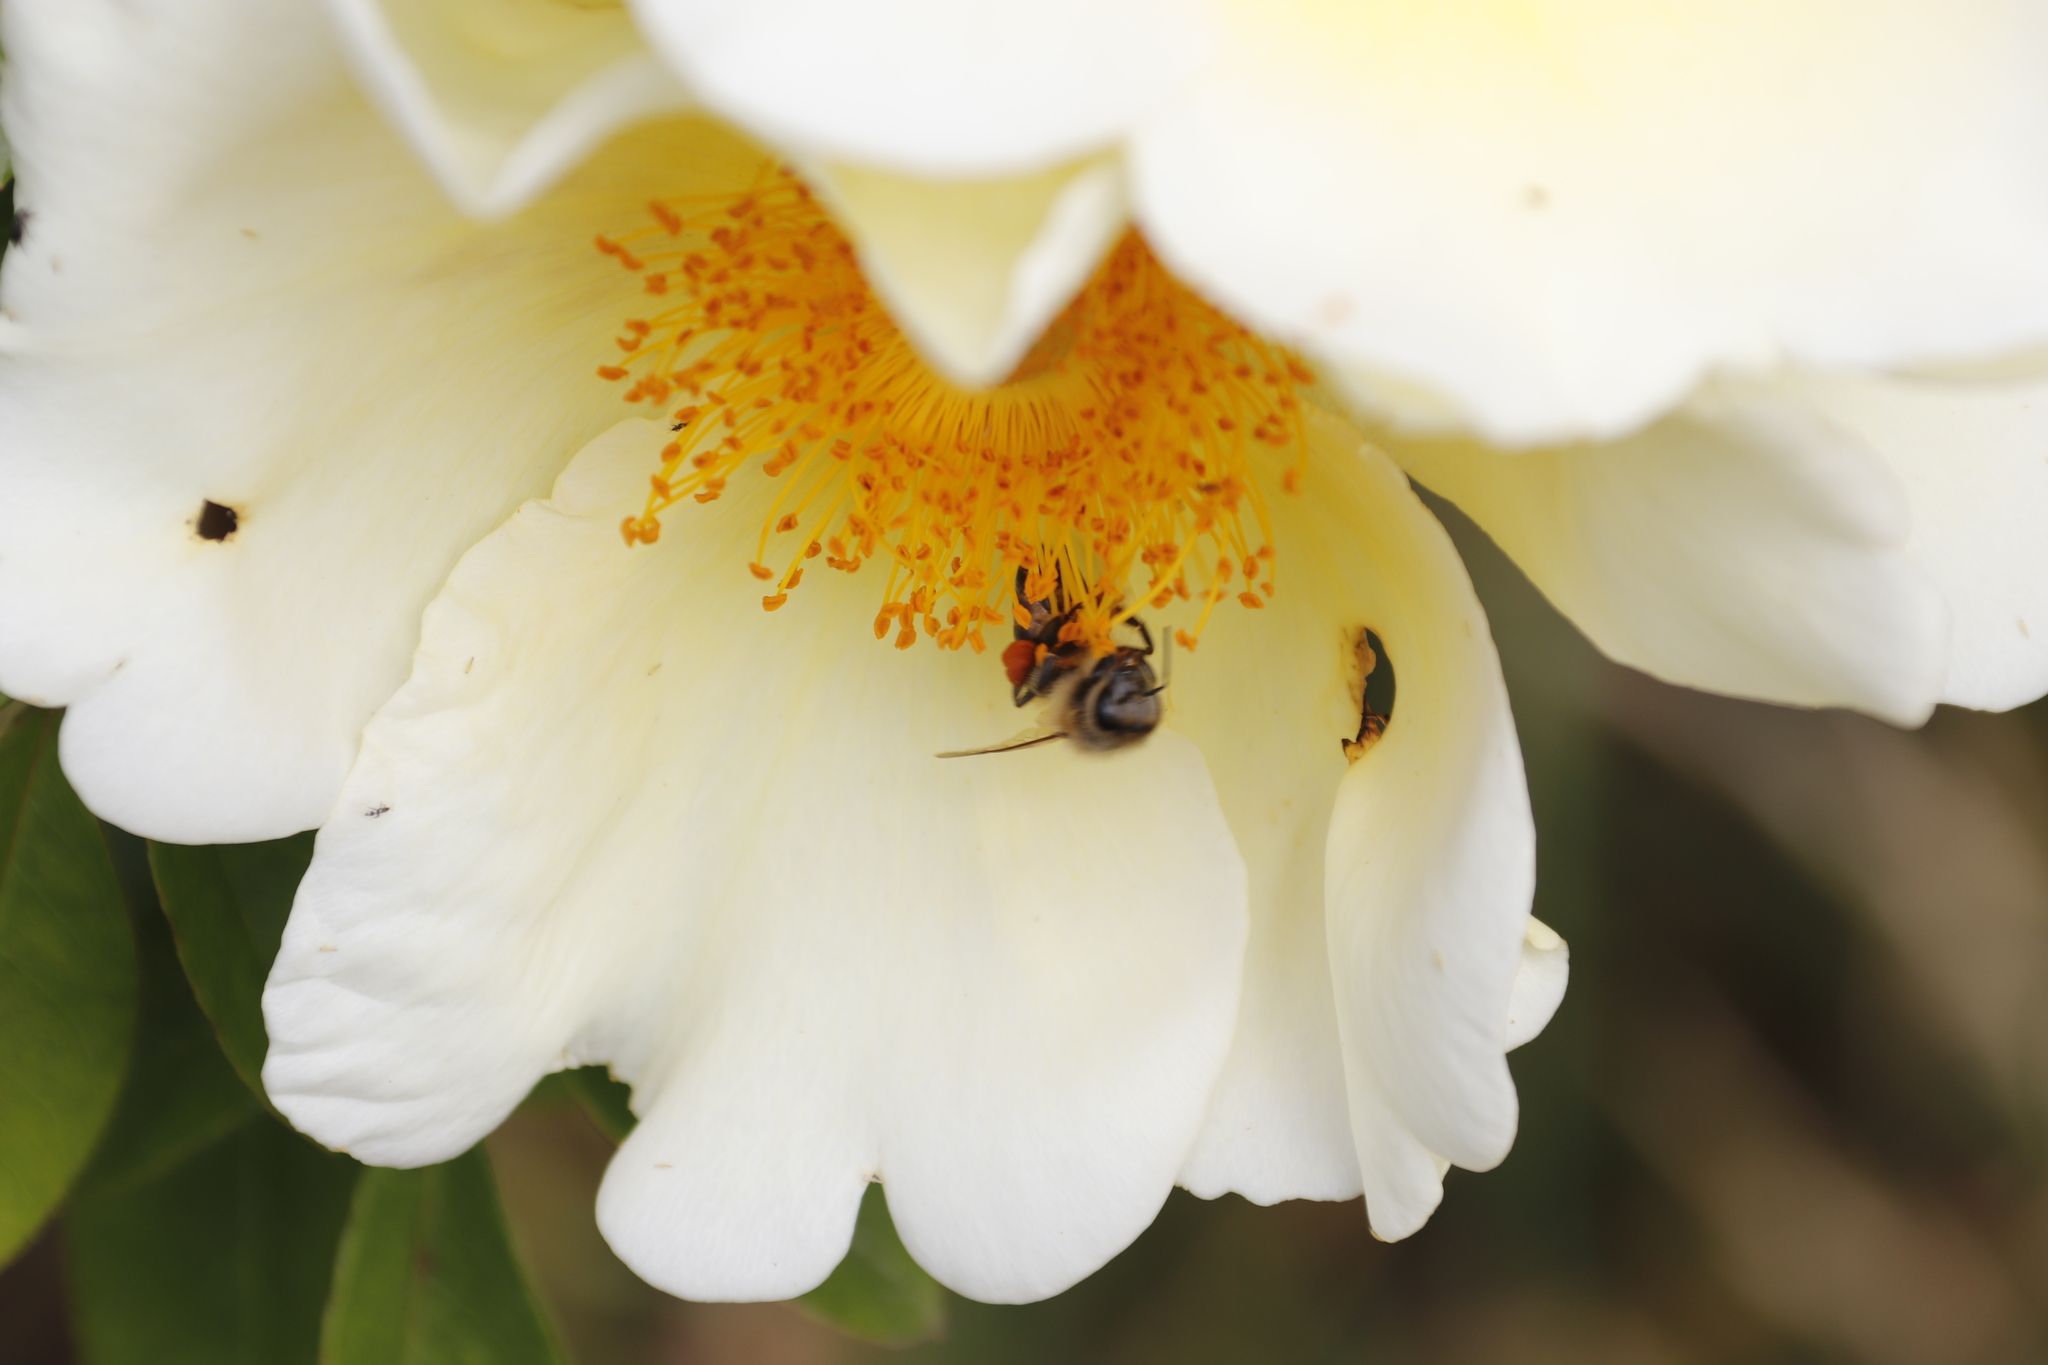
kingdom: Animalia
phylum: Arthropoda
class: Insecta
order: Hymenoptera
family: Apidae
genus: Apis
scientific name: Apis mellifera
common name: Honey bee
